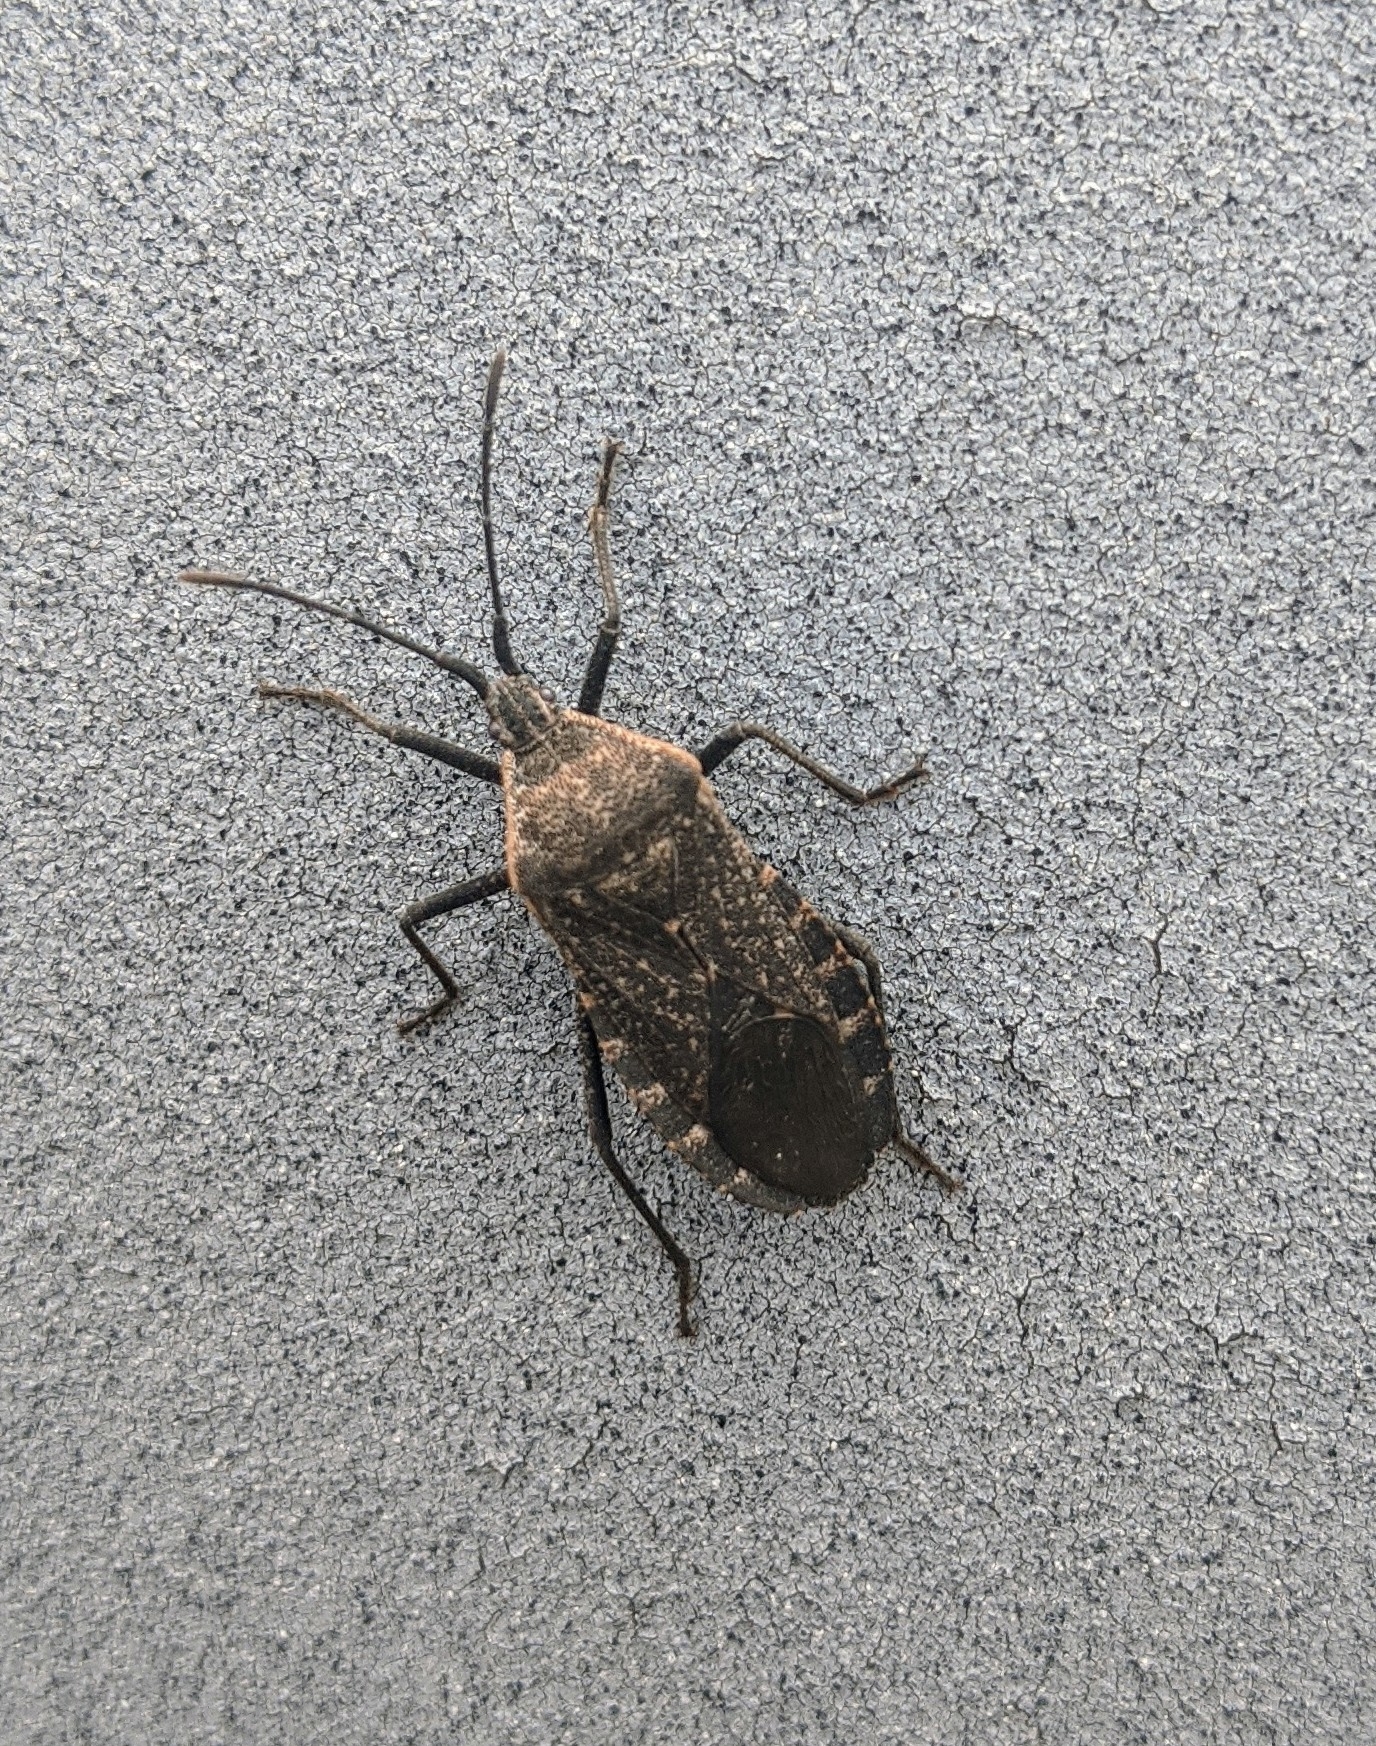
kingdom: Animalia
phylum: Arthropoda
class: Insecta
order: Hemiptera
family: Coreidae
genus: Anasa
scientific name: Anasa tristis
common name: Squash bug
